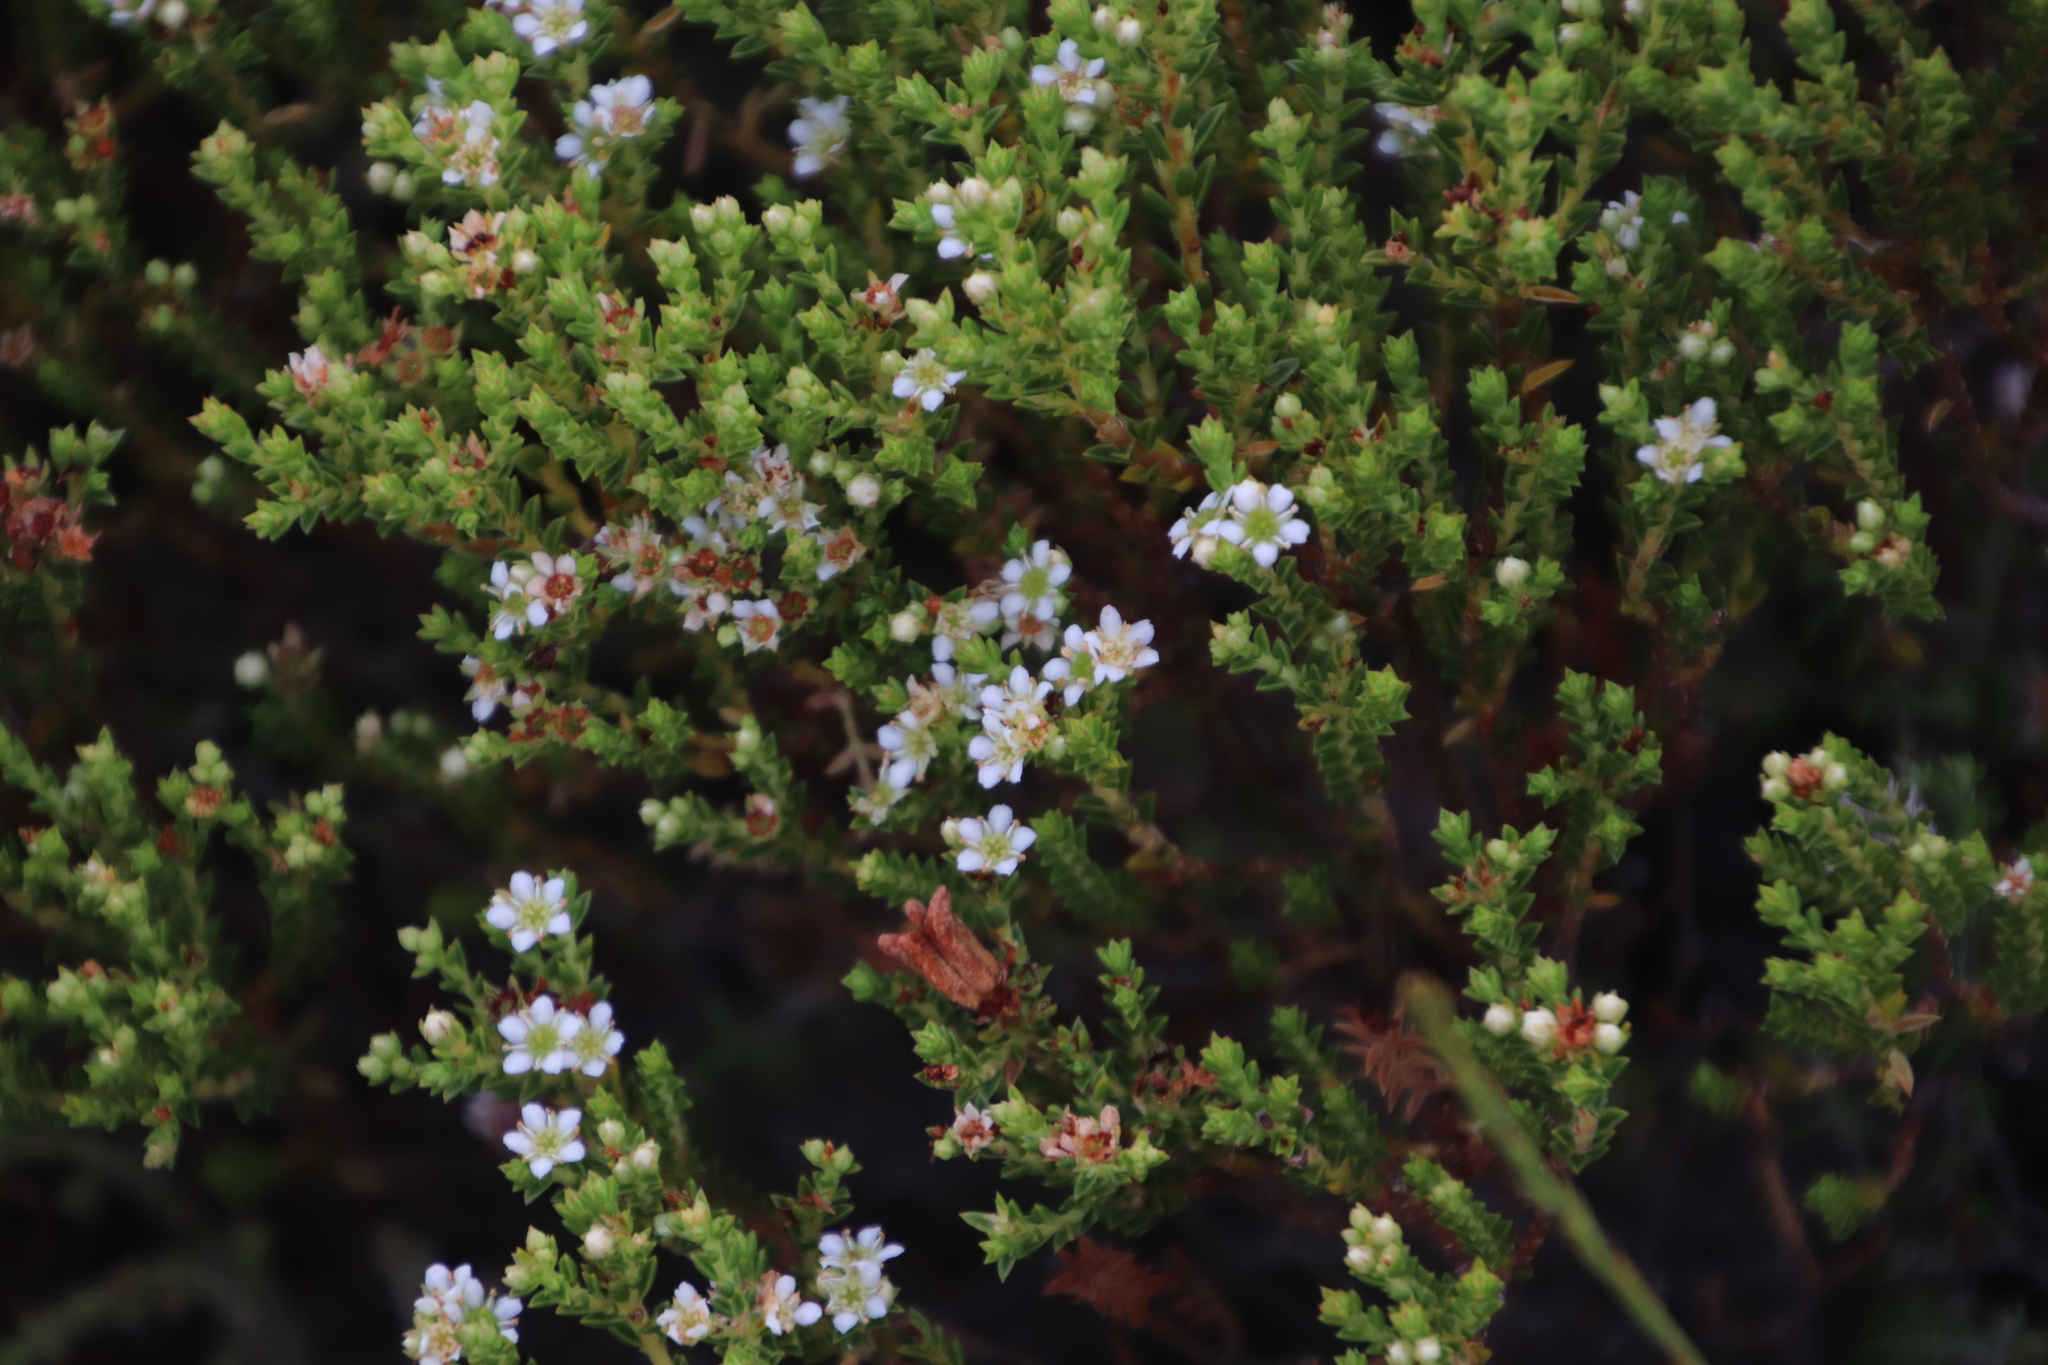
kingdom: Plantae
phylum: Tracheophyta
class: Magnoliopsida
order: Sapindales
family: Rutaceae
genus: Diosma
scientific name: Diosma oppositifolia
